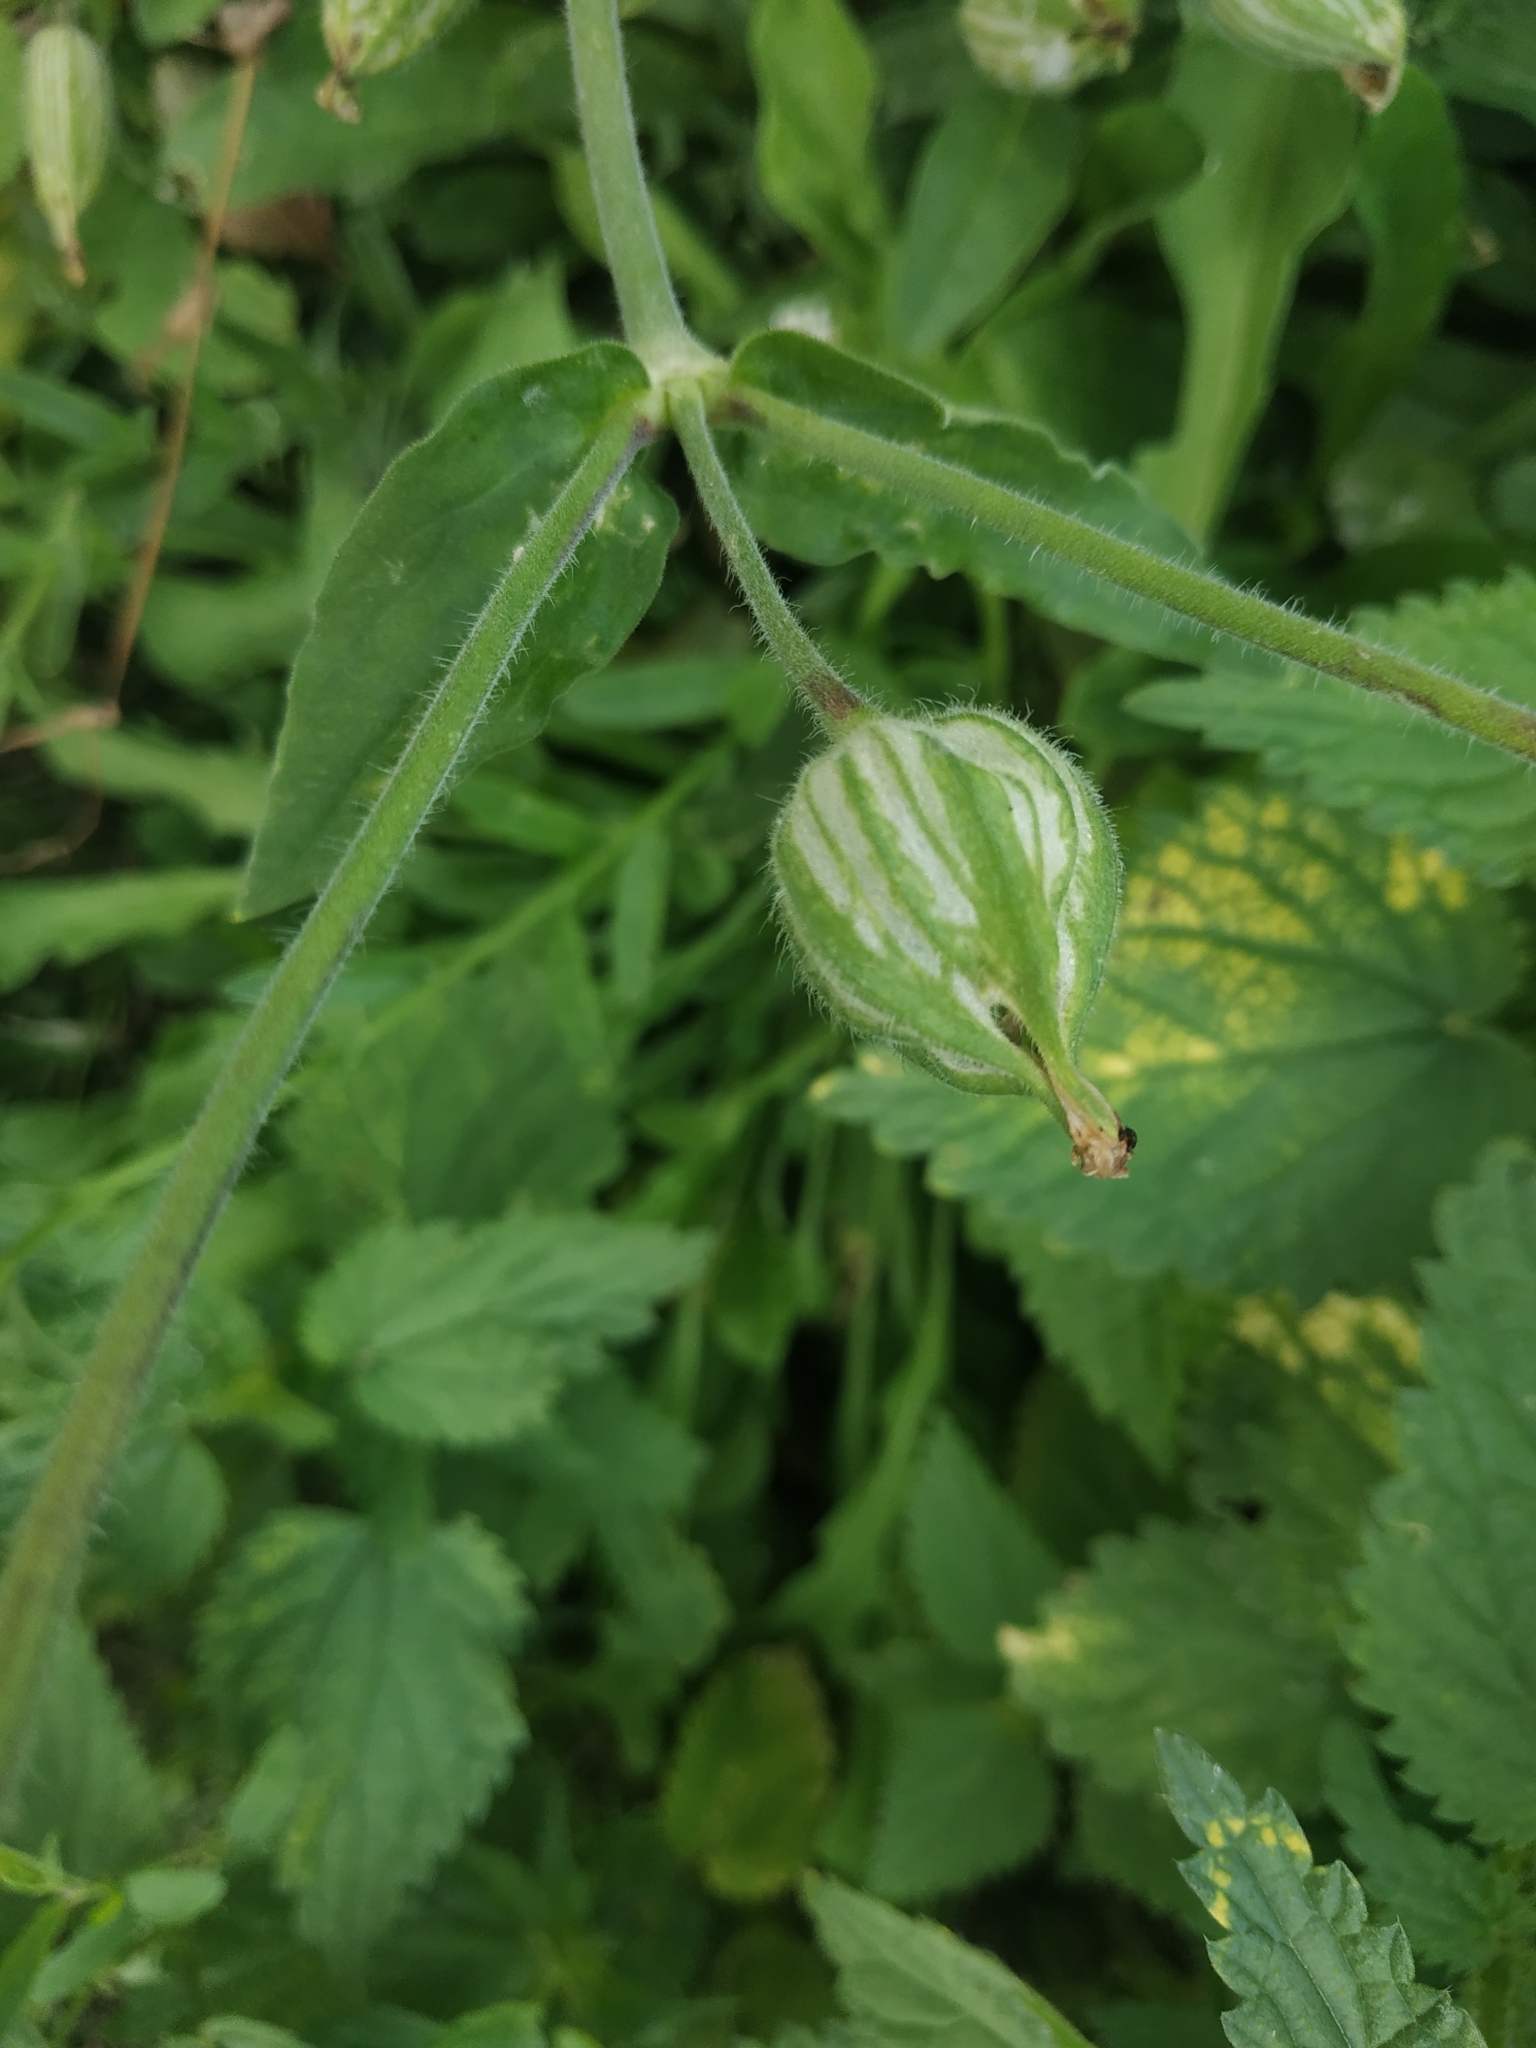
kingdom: Plantae
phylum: Tracheophyta
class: Magnoliopsida
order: Caryophyllales
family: Caryophyllaceae
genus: Silene
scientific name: Silene latifolia
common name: White campion
